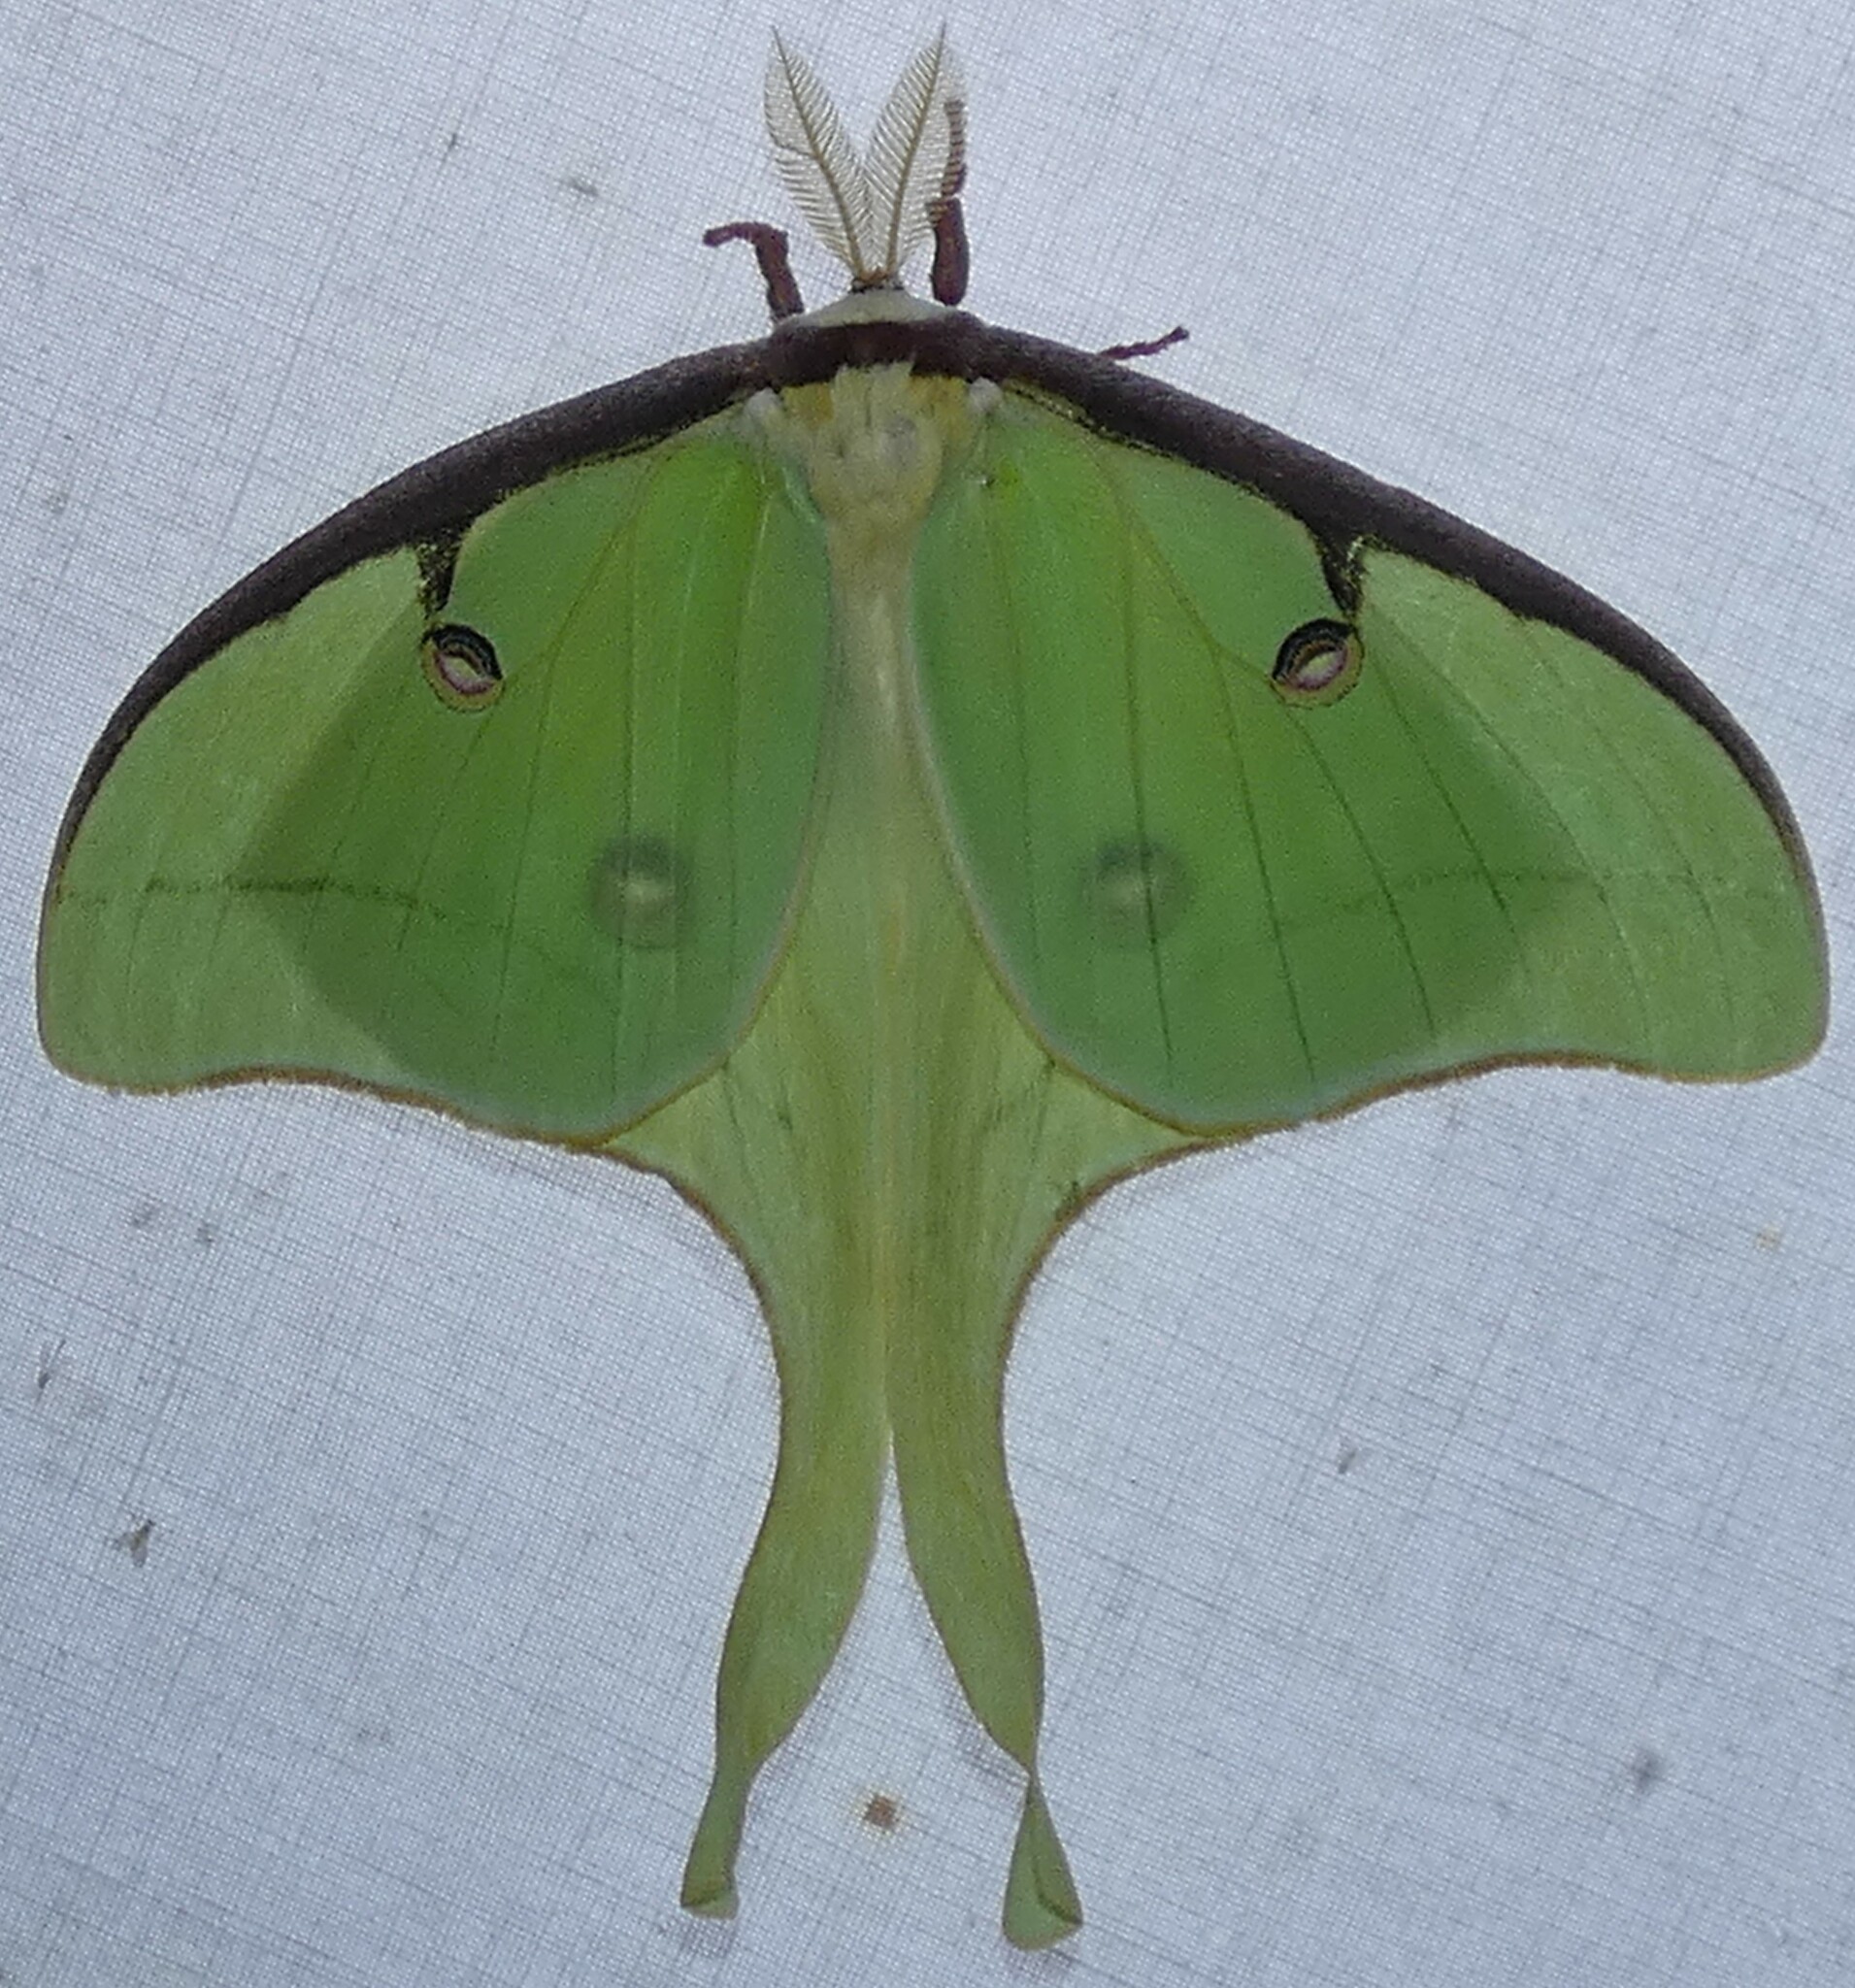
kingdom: Animalia
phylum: Arthropoda
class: Insecta
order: Lepidoptera
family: Saturniidae
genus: Actias
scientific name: Actias luna
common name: Luna moth
